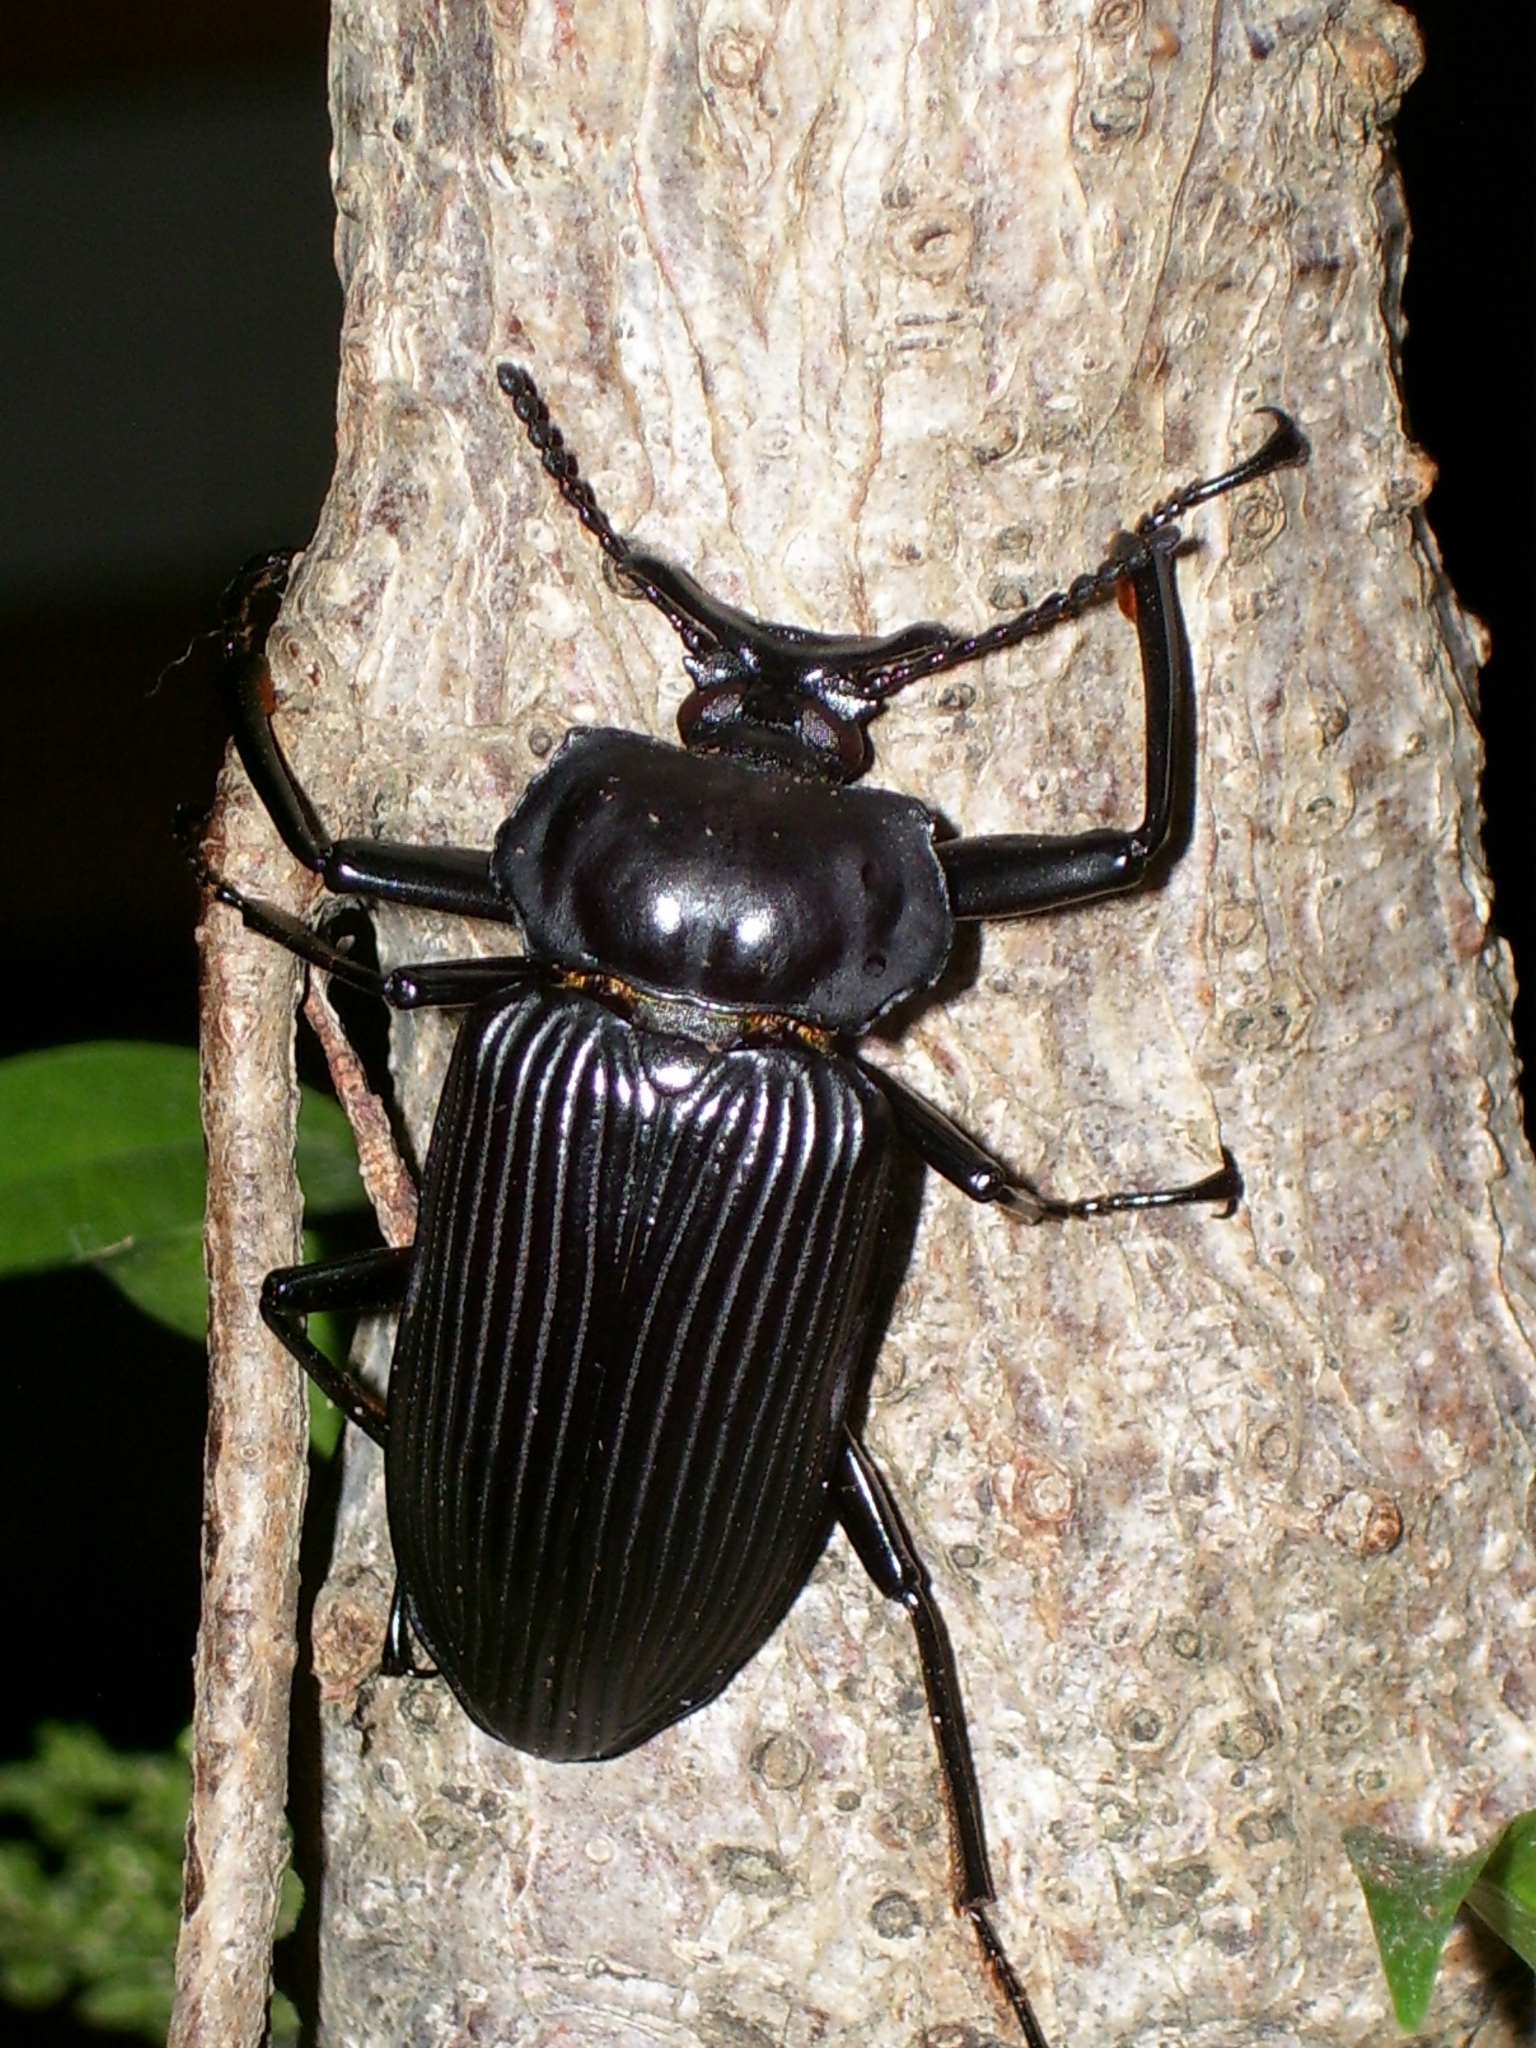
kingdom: Animalia
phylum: Arthropoda
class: Insecta
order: Coleoptera
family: Tenebrionidae
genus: Tauroceras
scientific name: Tauroceras girardi
